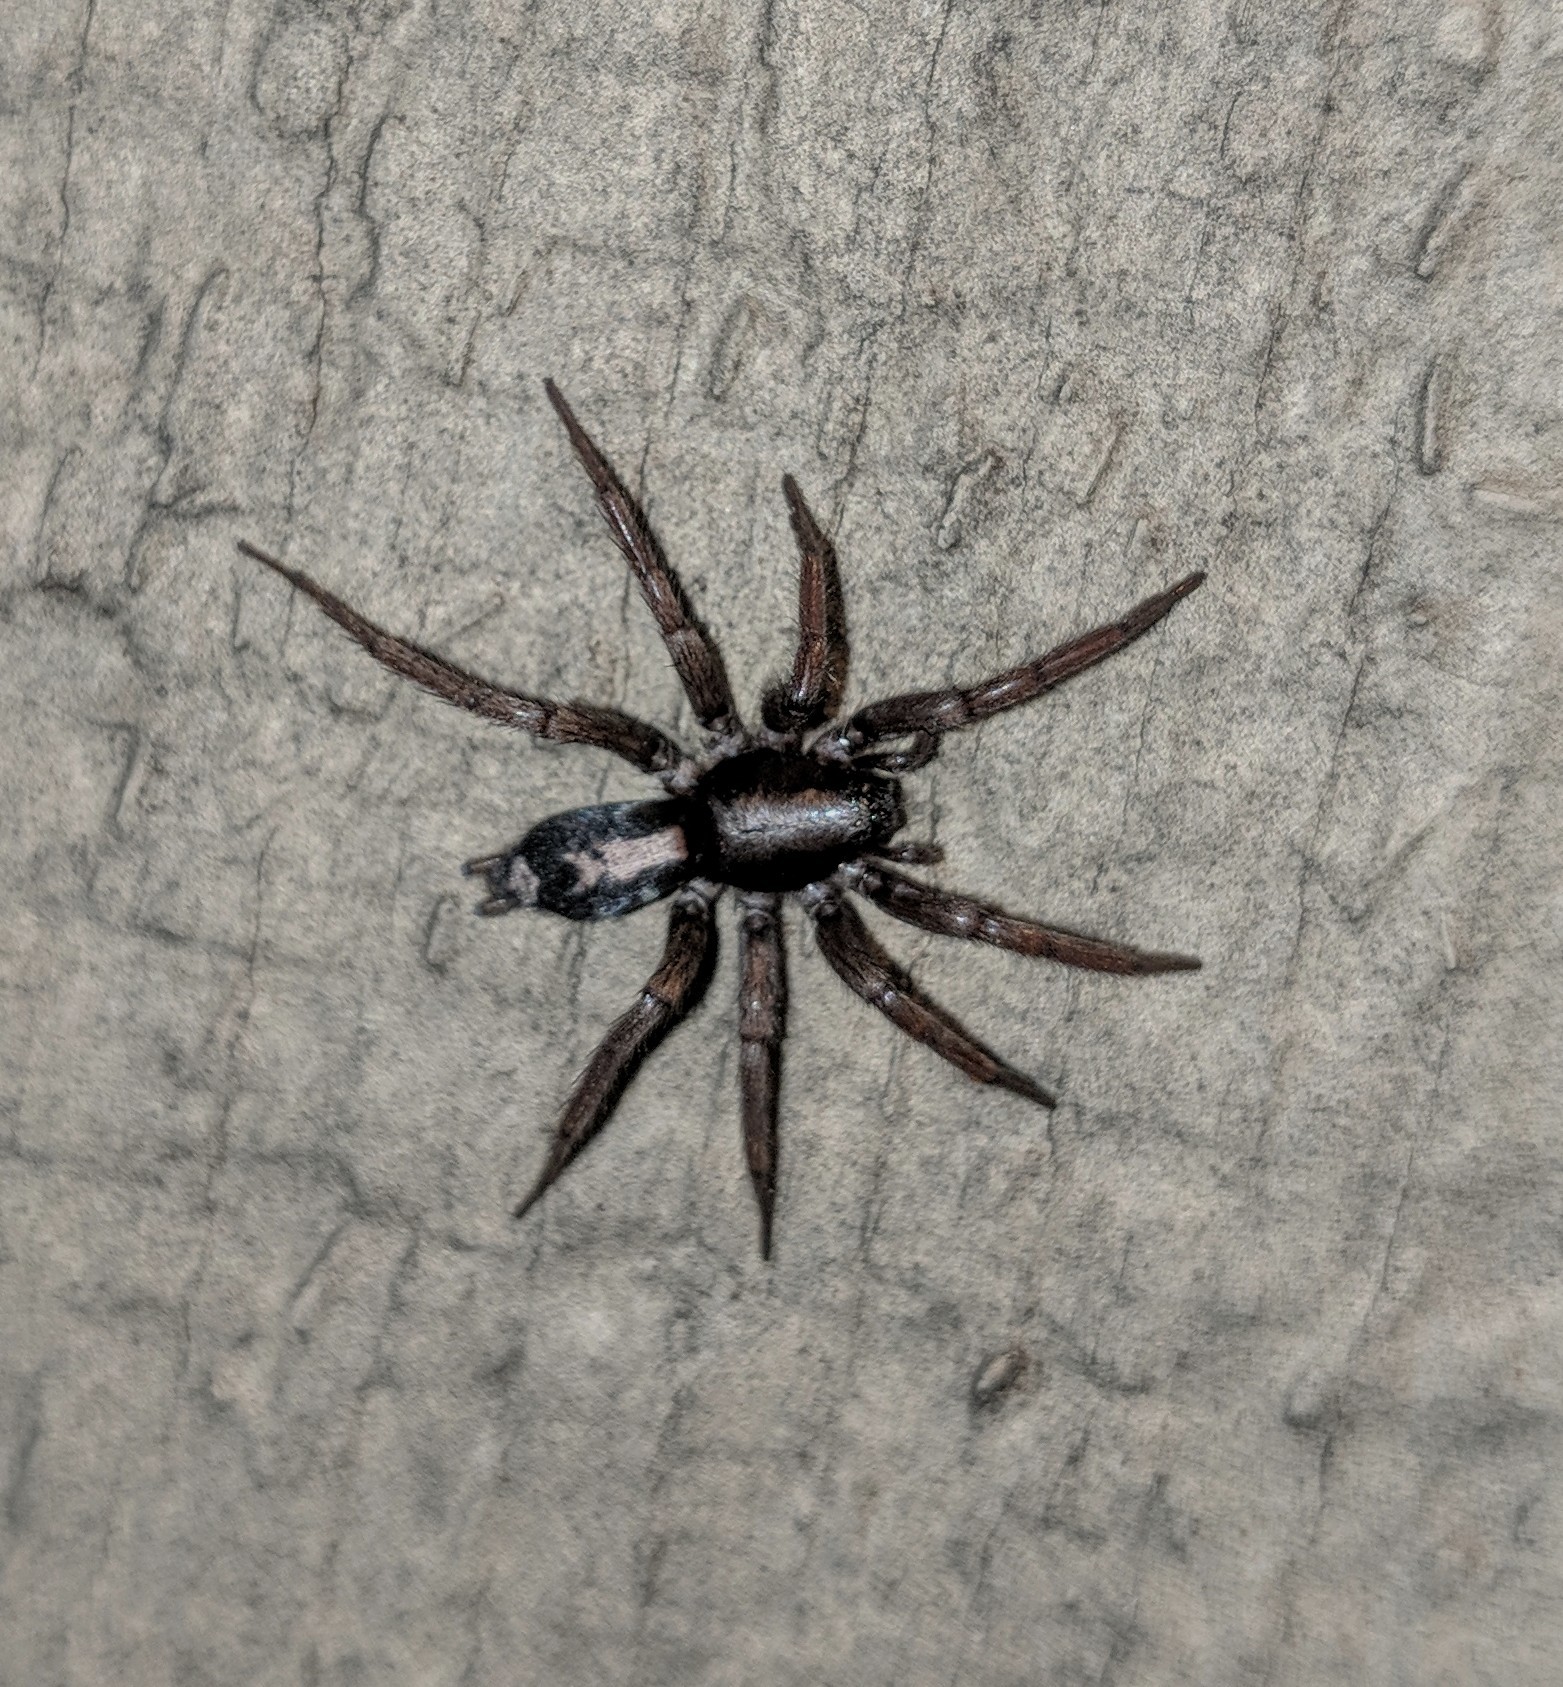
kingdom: Animalia
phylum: Arthropoda
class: Arachnida
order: Araneae
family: Gnaphosidae
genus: Herpyllus
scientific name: Herpyllus ecclesiasticus
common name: Eastern parson spider
